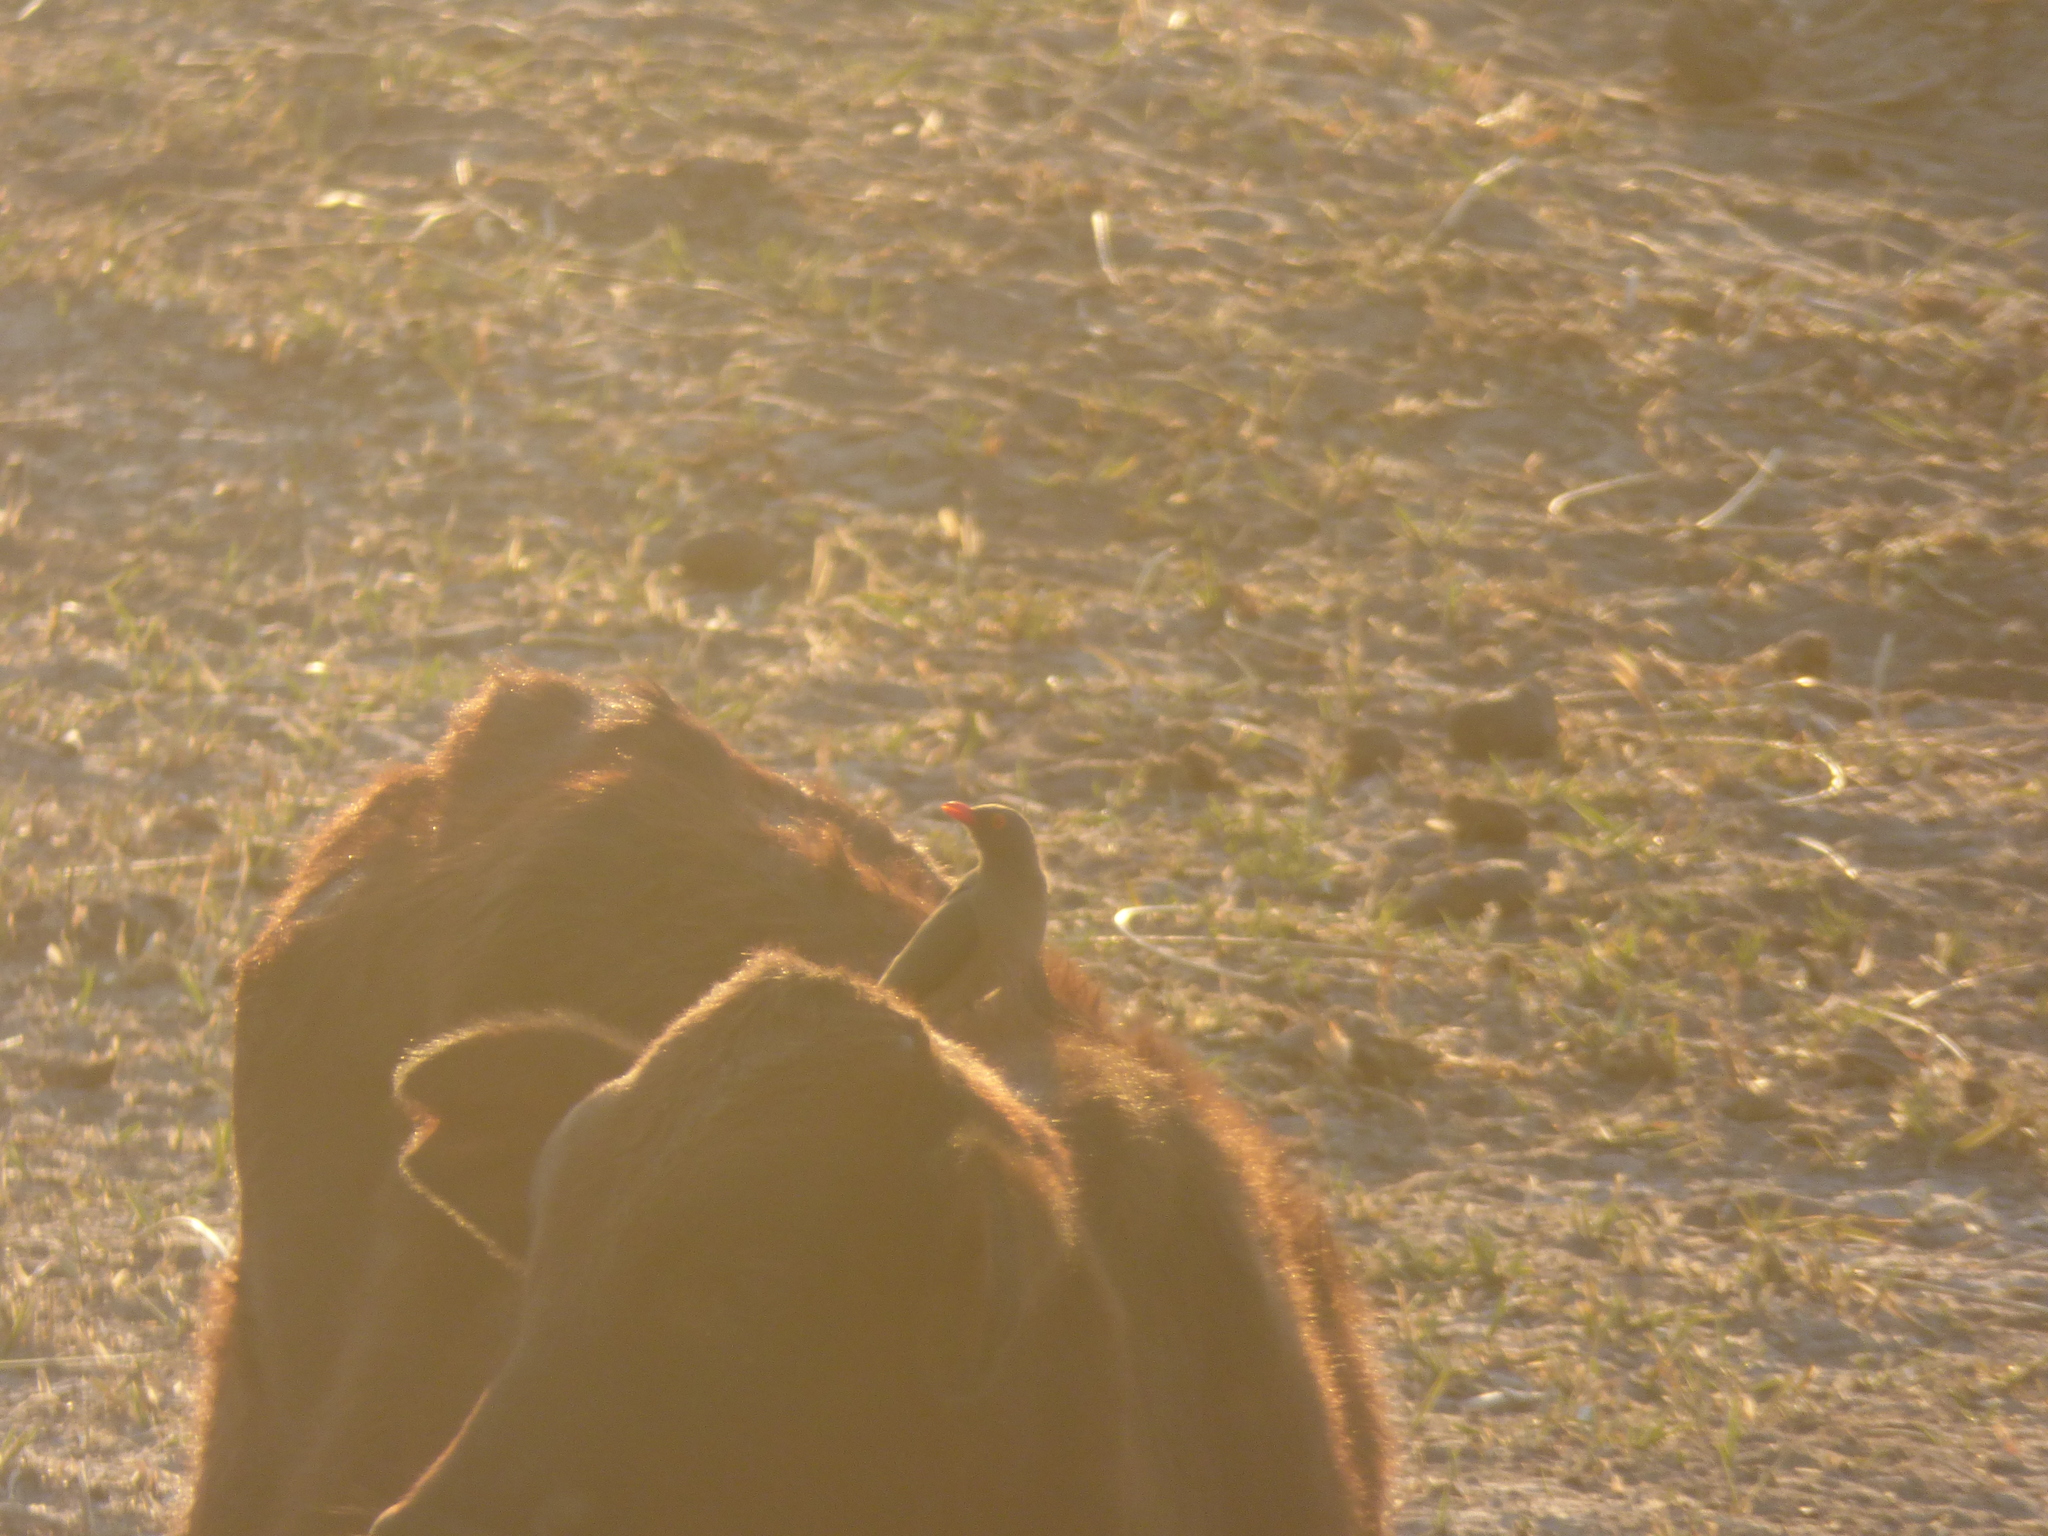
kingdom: Animalia
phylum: Chordata
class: Aves
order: Passeriformes
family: Buphagidae
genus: Buphagus
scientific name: Buphagus erythrorhynchus
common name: Red-billed oxpecker
